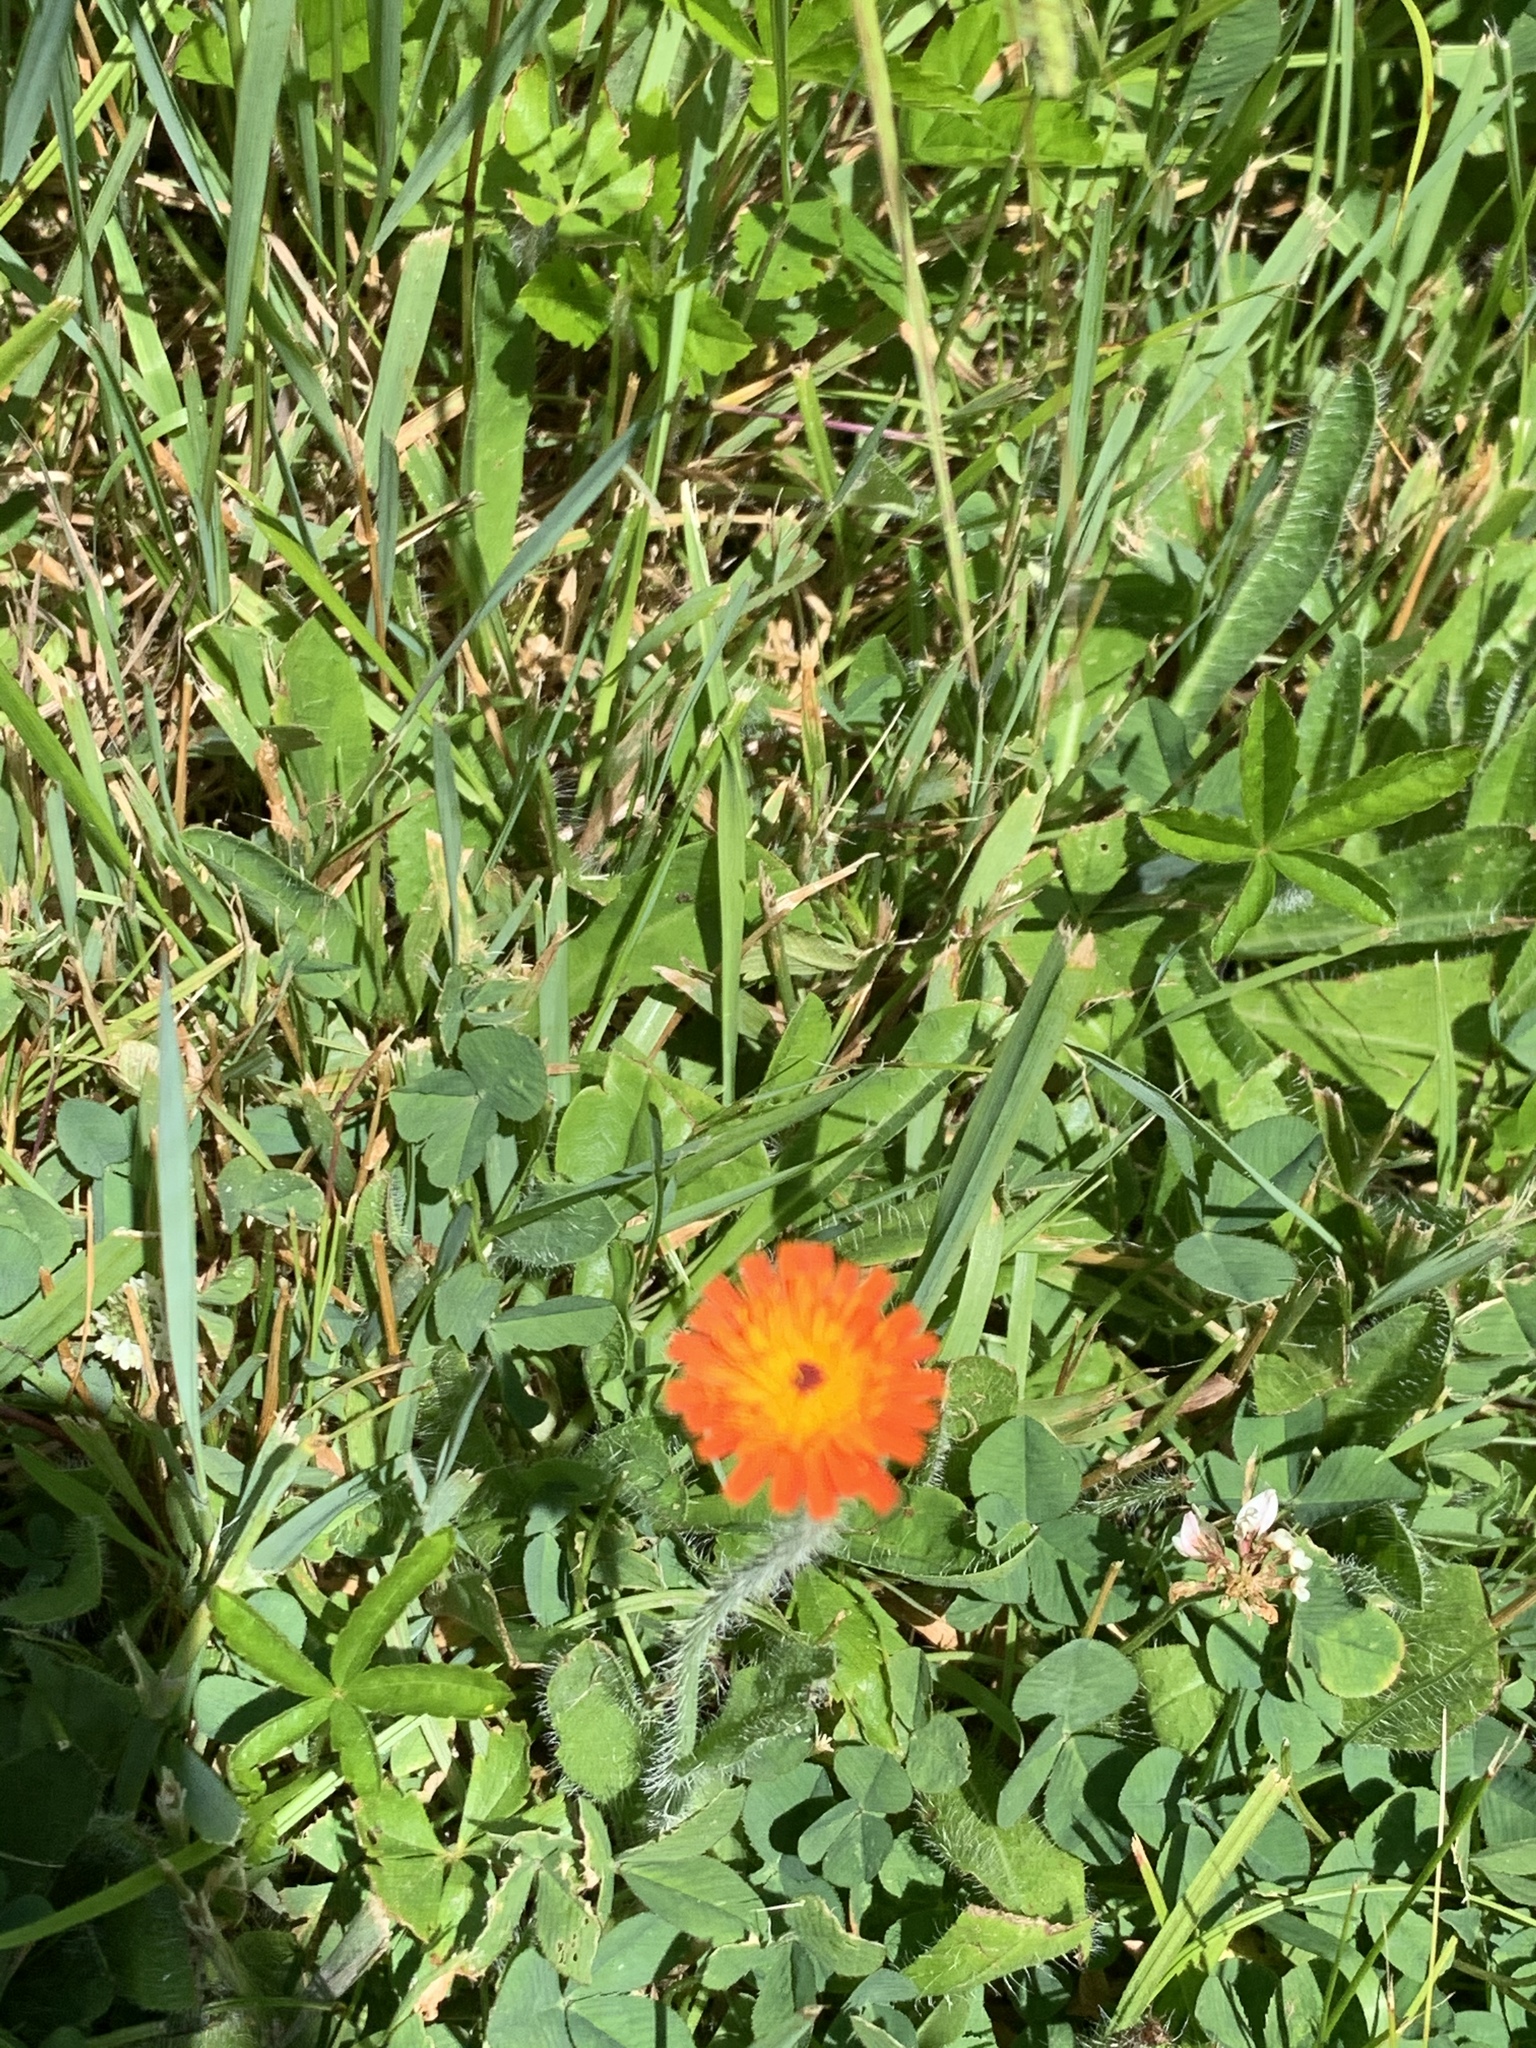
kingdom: Plantae
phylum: Tracheophyta
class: Magnoliopsida
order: Asterales
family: Asteraceae
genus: Pilosella
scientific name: Pilosella aurantiaca
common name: Fox-and-cubs
